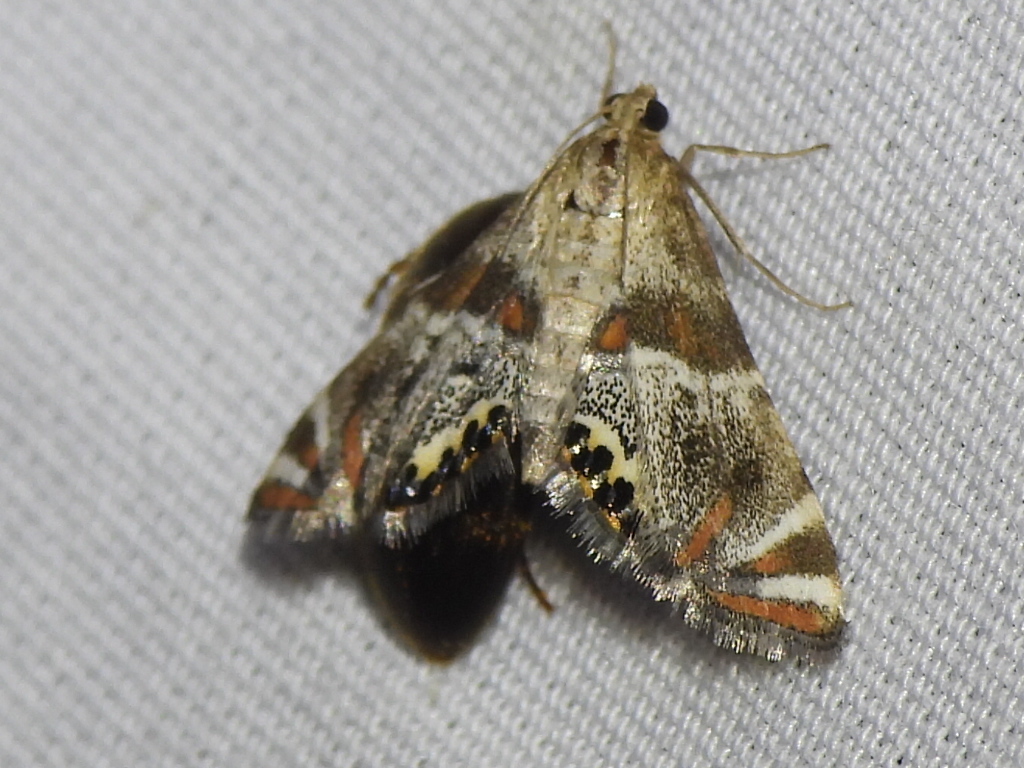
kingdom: Animalia
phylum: Arthropoda
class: Insecta
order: Lepidoptera
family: Crambidae
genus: Petrophila
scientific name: Petrophila jaliscalis
